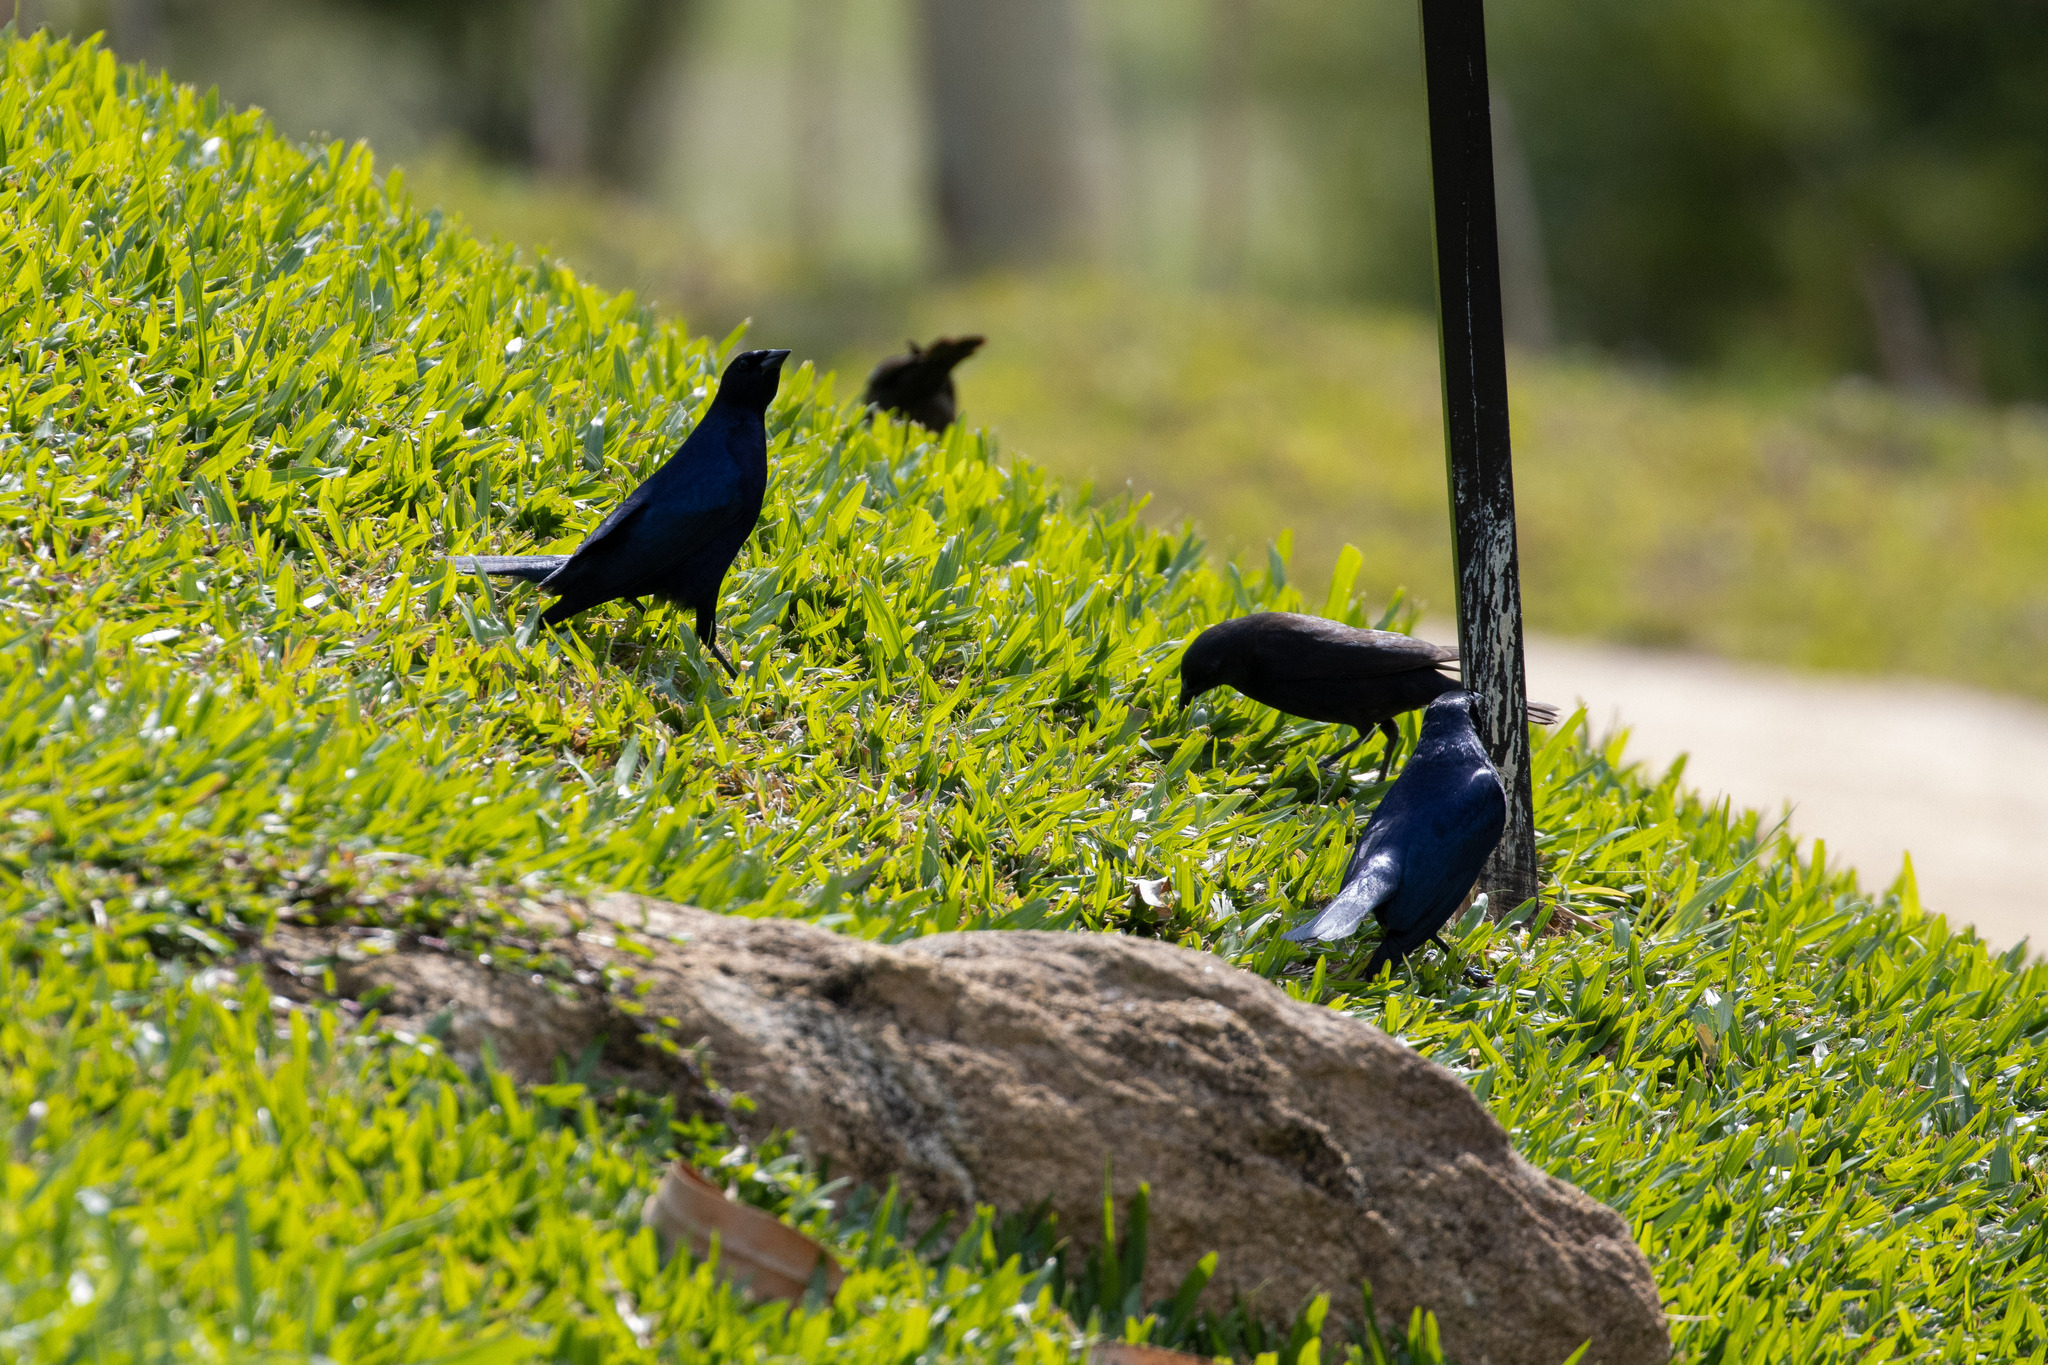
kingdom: Animalia
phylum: Chordata
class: Aves
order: Passeriformes
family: Icteridae
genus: Molothrus
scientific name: Molothrus bonariensis
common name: Shiny cowbird
